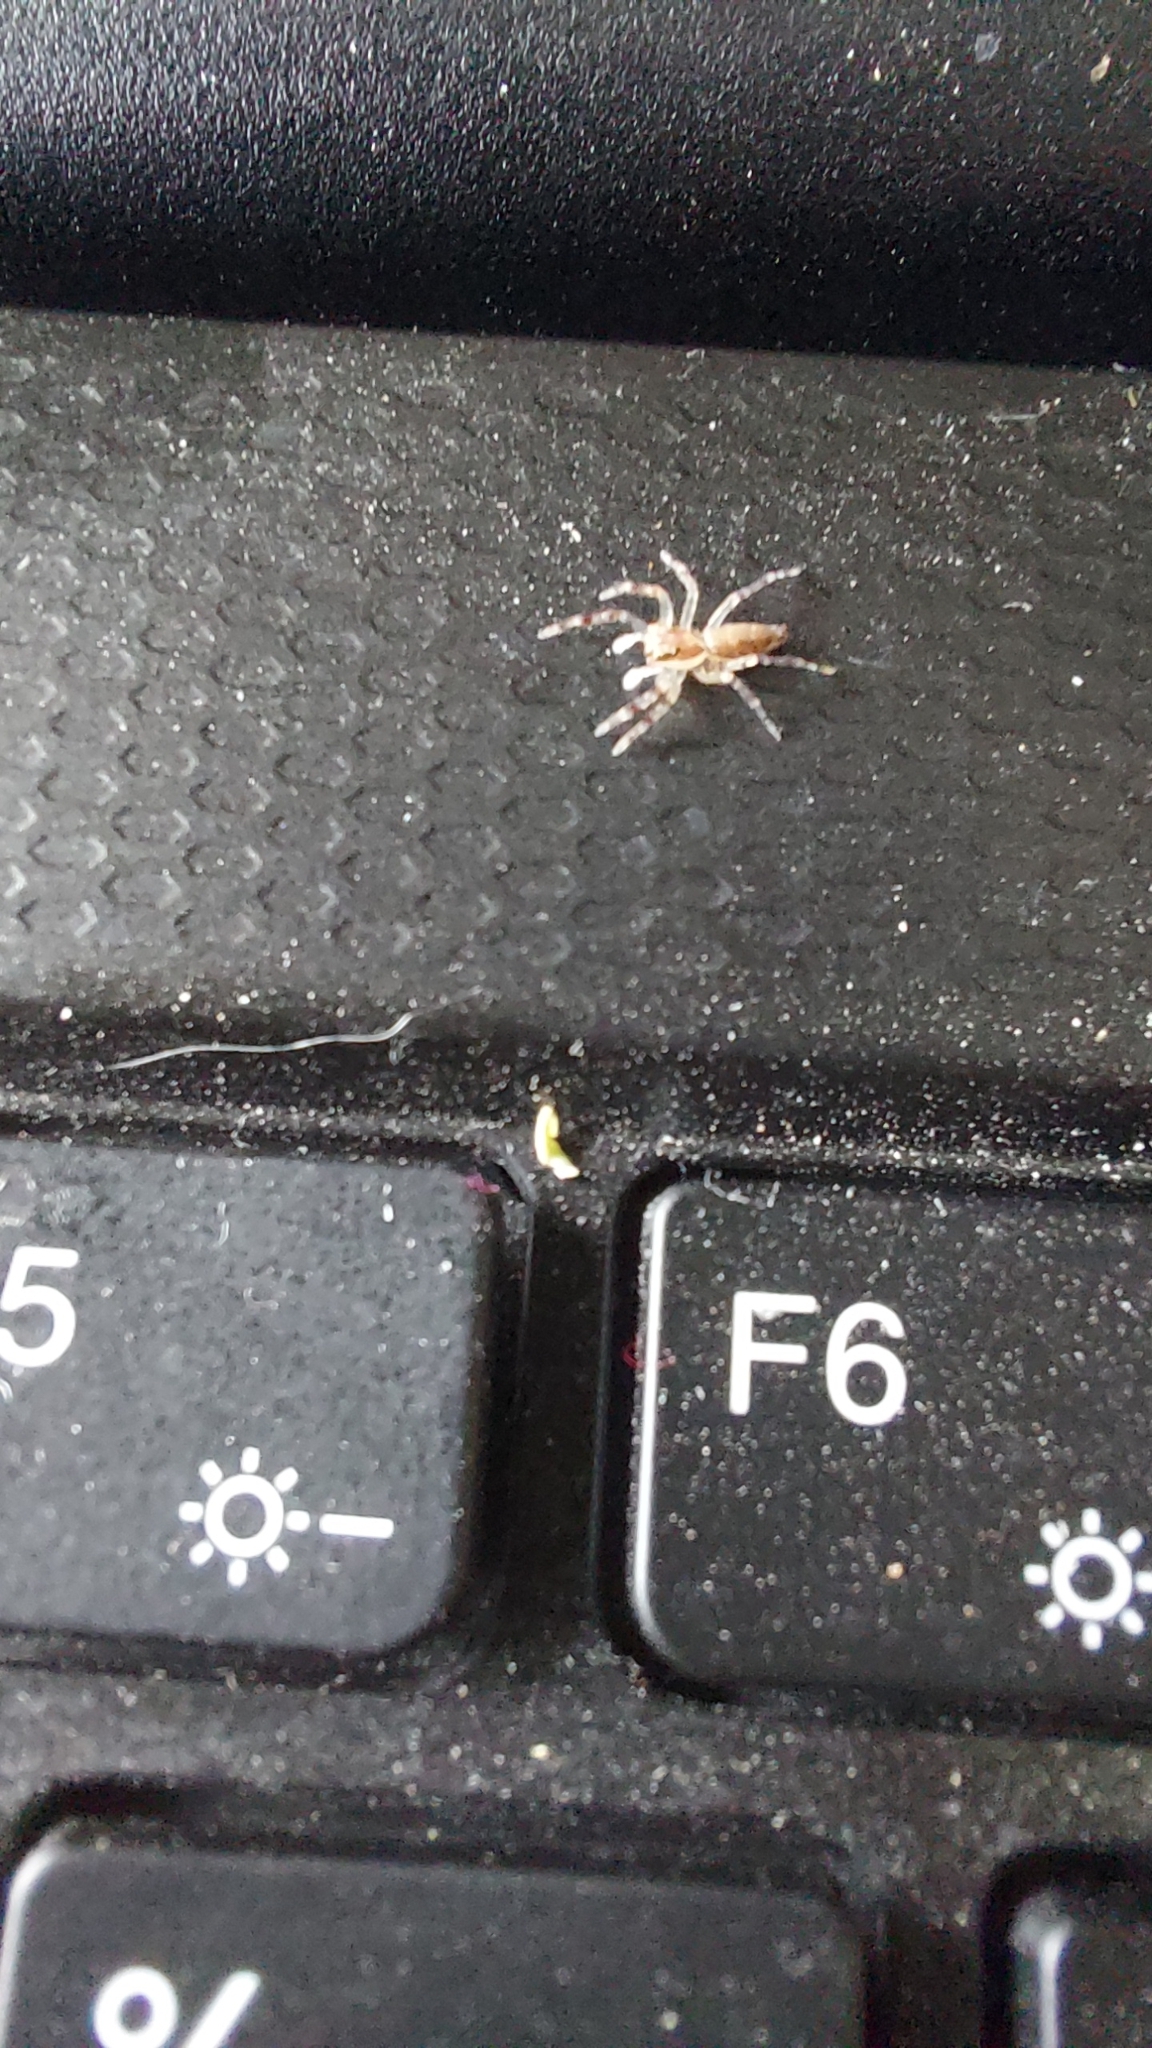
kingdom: Animalia
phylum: Arthropoda
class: Arachnida
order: Araneae
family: Salticidae
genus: Helpis
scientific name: Helpis minitabunda
